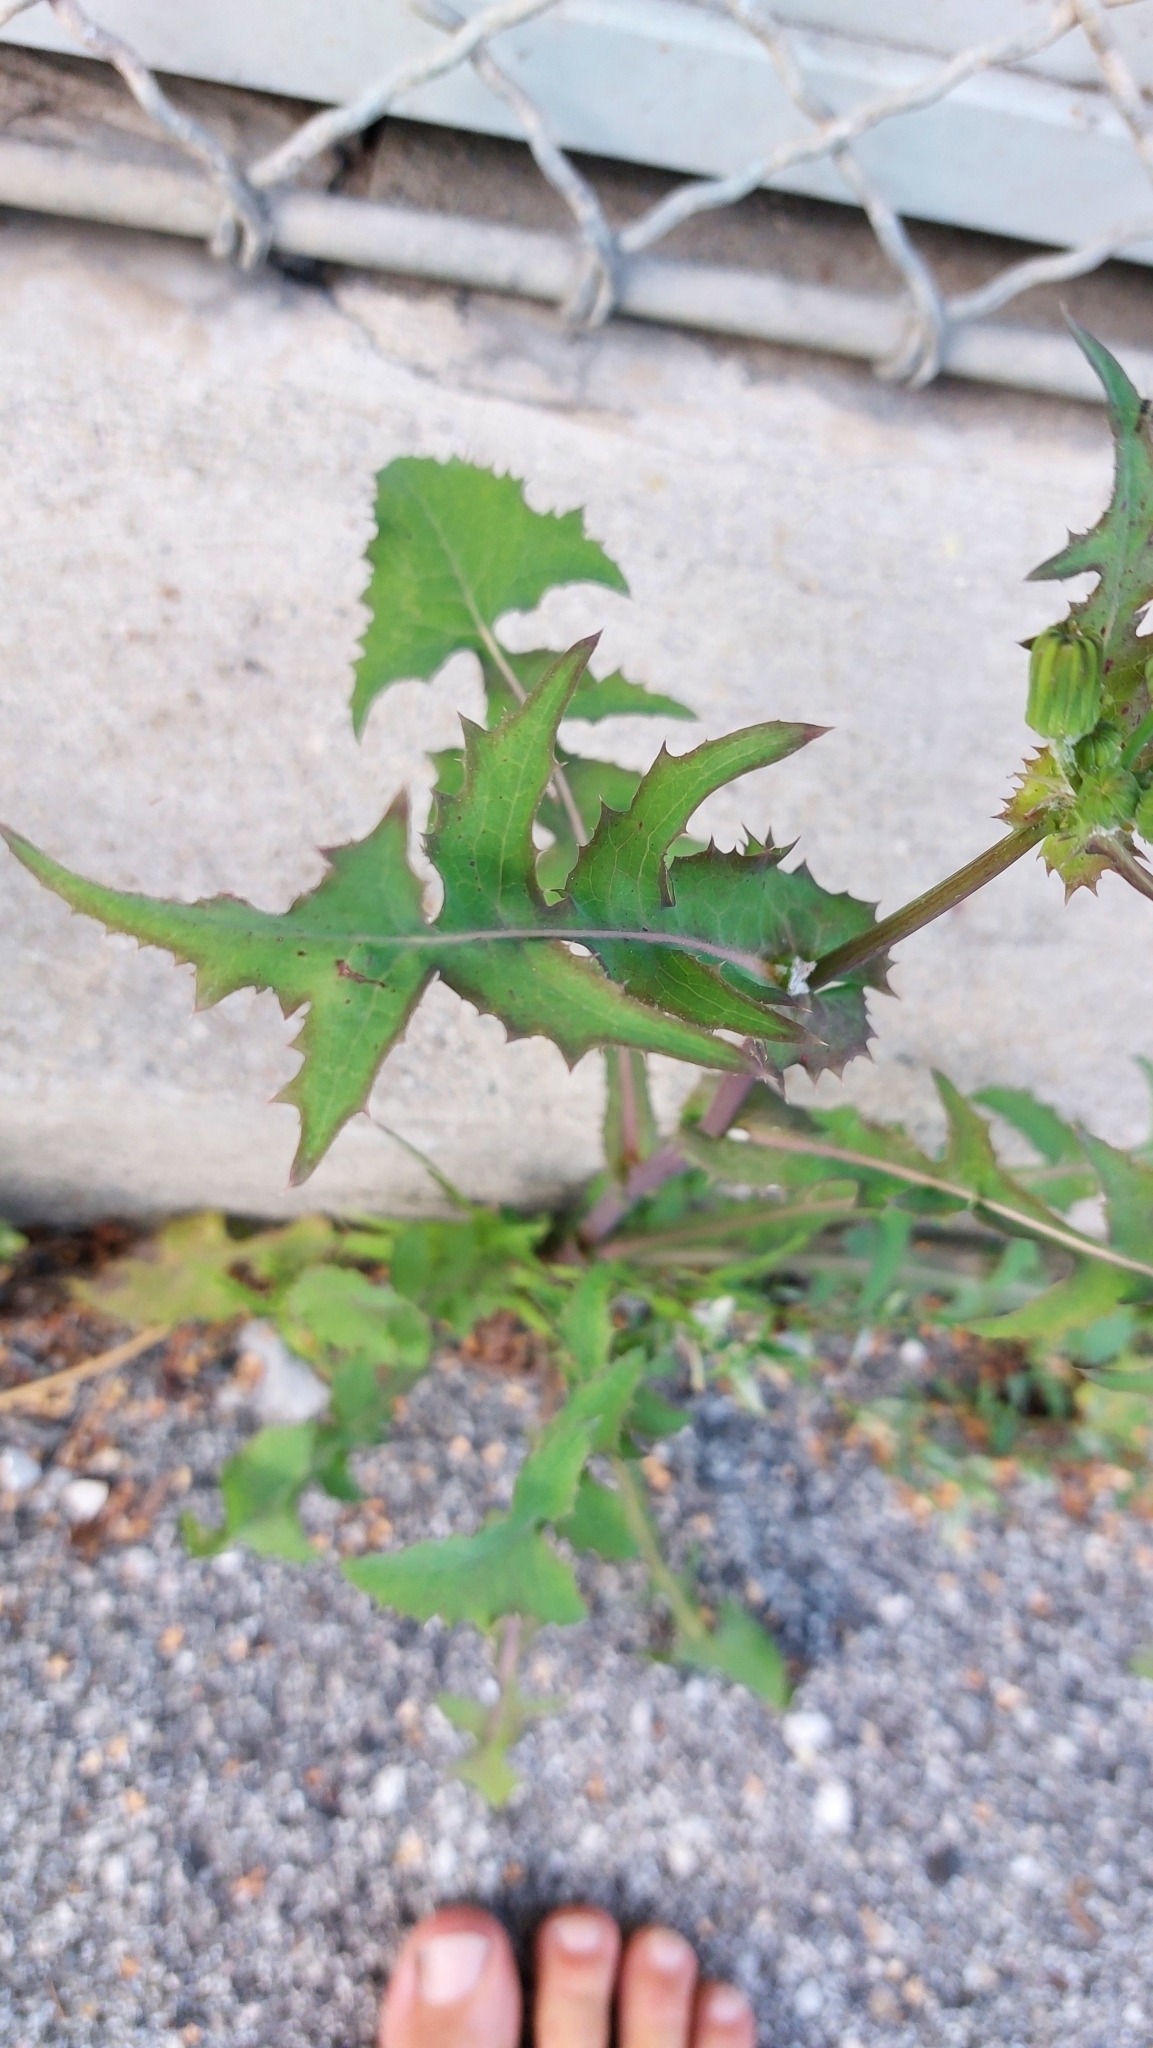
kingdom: Plantae
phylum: Tracheophyta
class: Magnoliopsida
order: Asterales
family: Asteraceae
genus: Sonchus
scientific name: Sonchus oleraceus
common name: Common sowthistle
